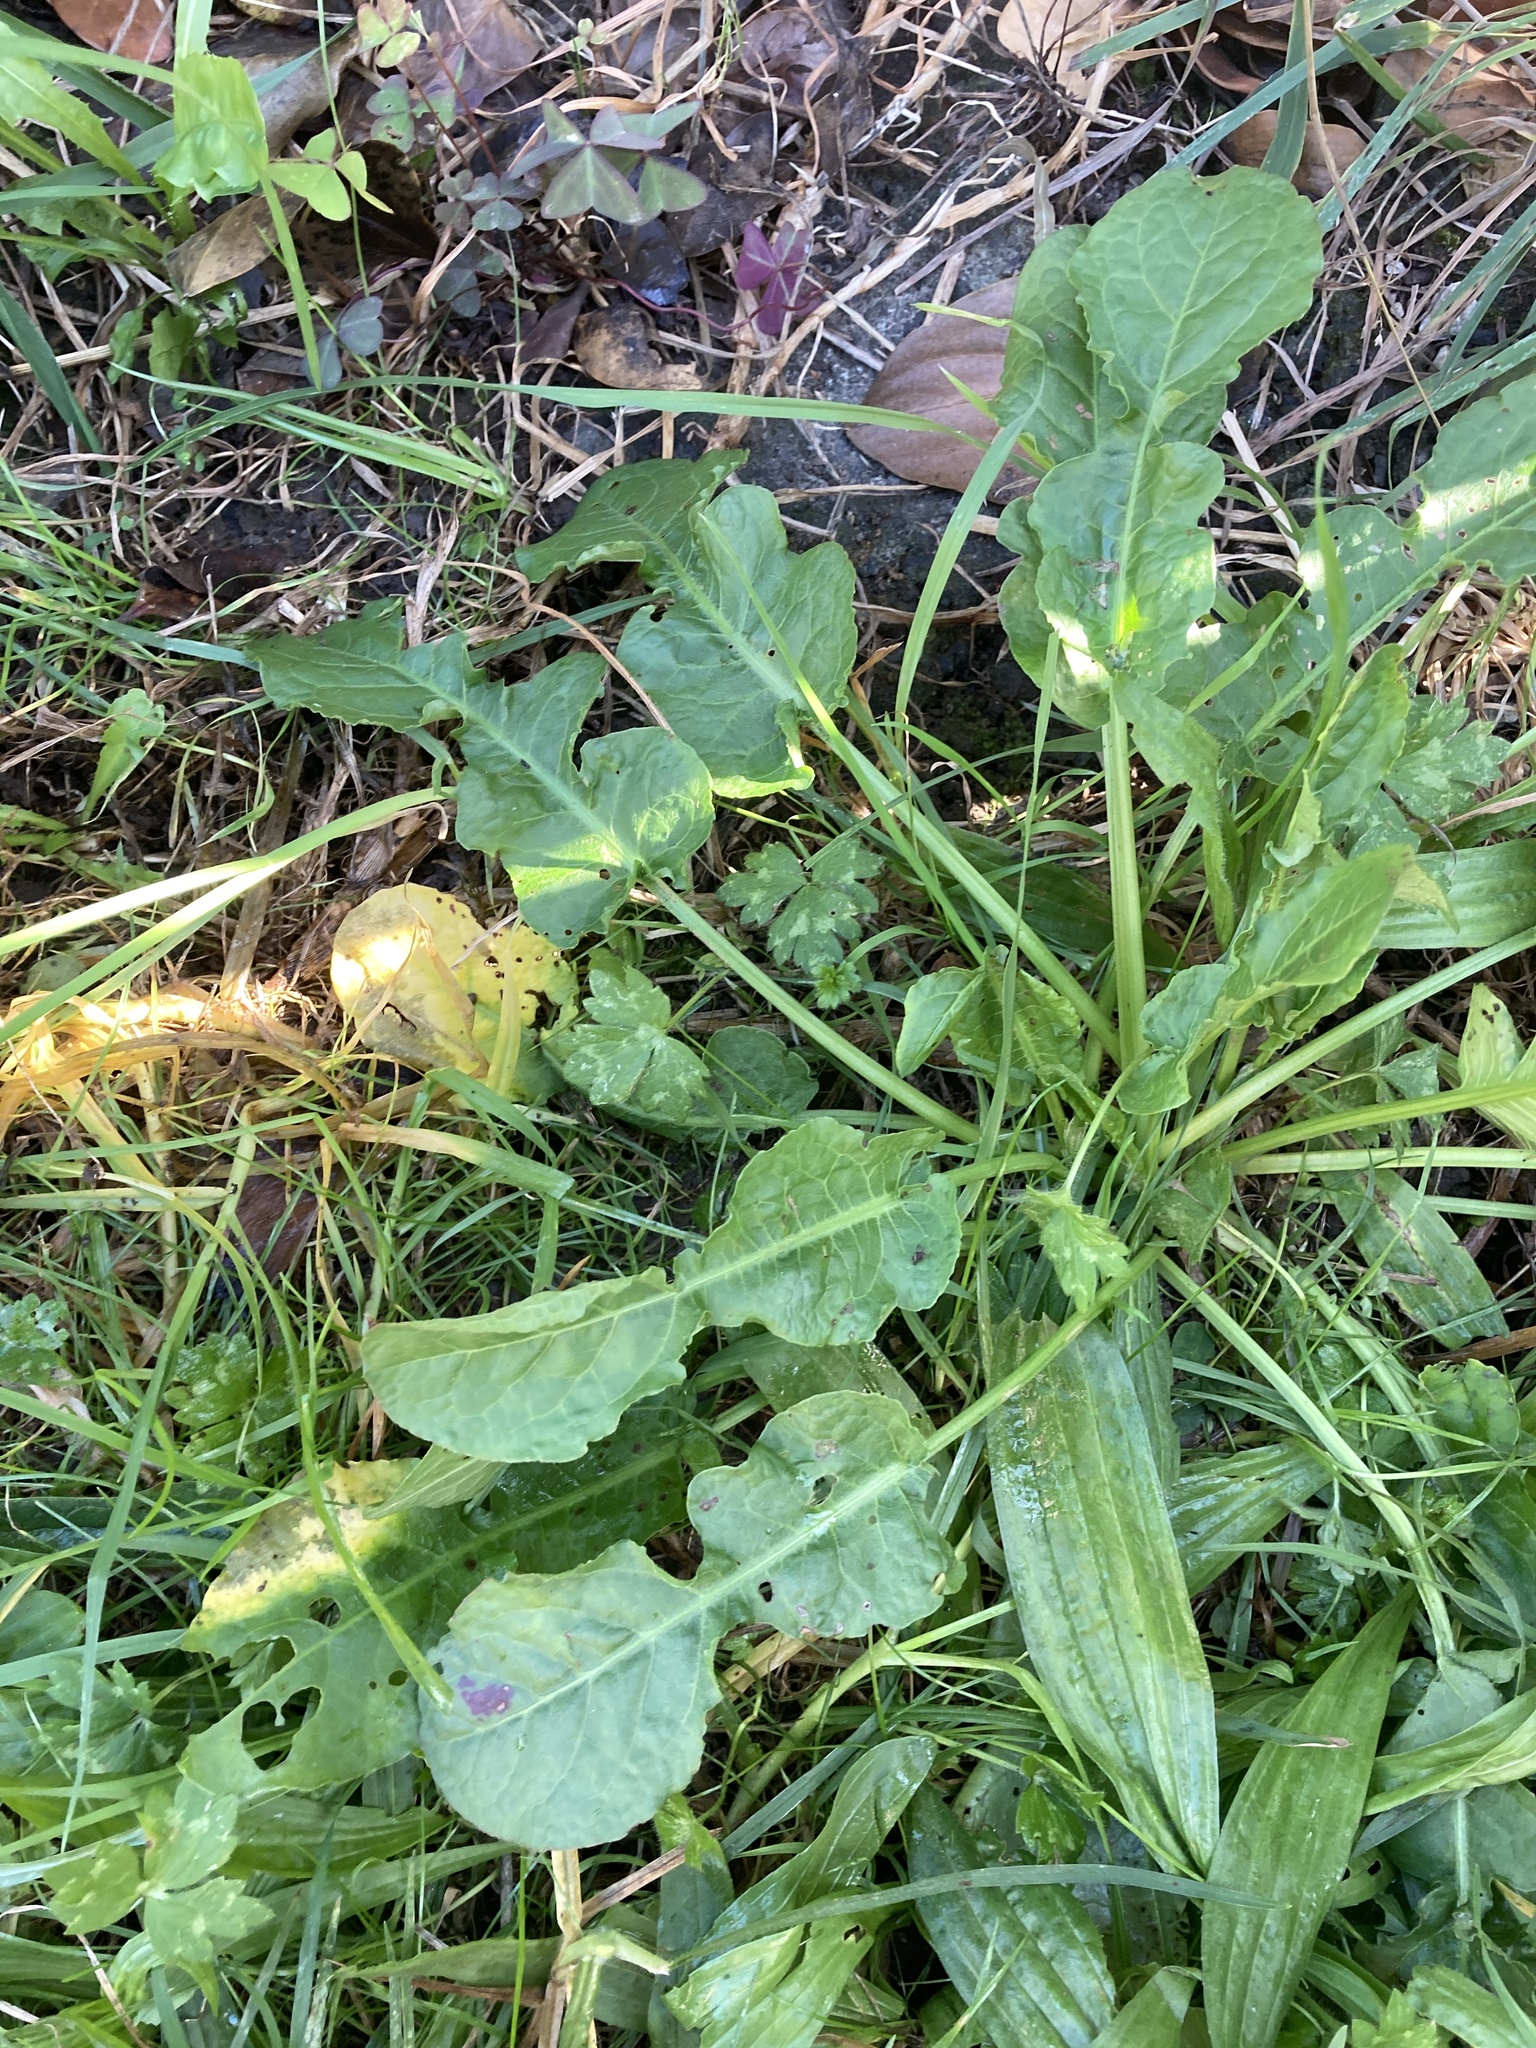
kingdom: Plantae
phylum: Tracheophyta
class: Magnoliopsida
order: Caryophyllales
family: Polygonaceae
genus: Rumex
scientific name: Rumex pulcher
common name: Fiddle dock
